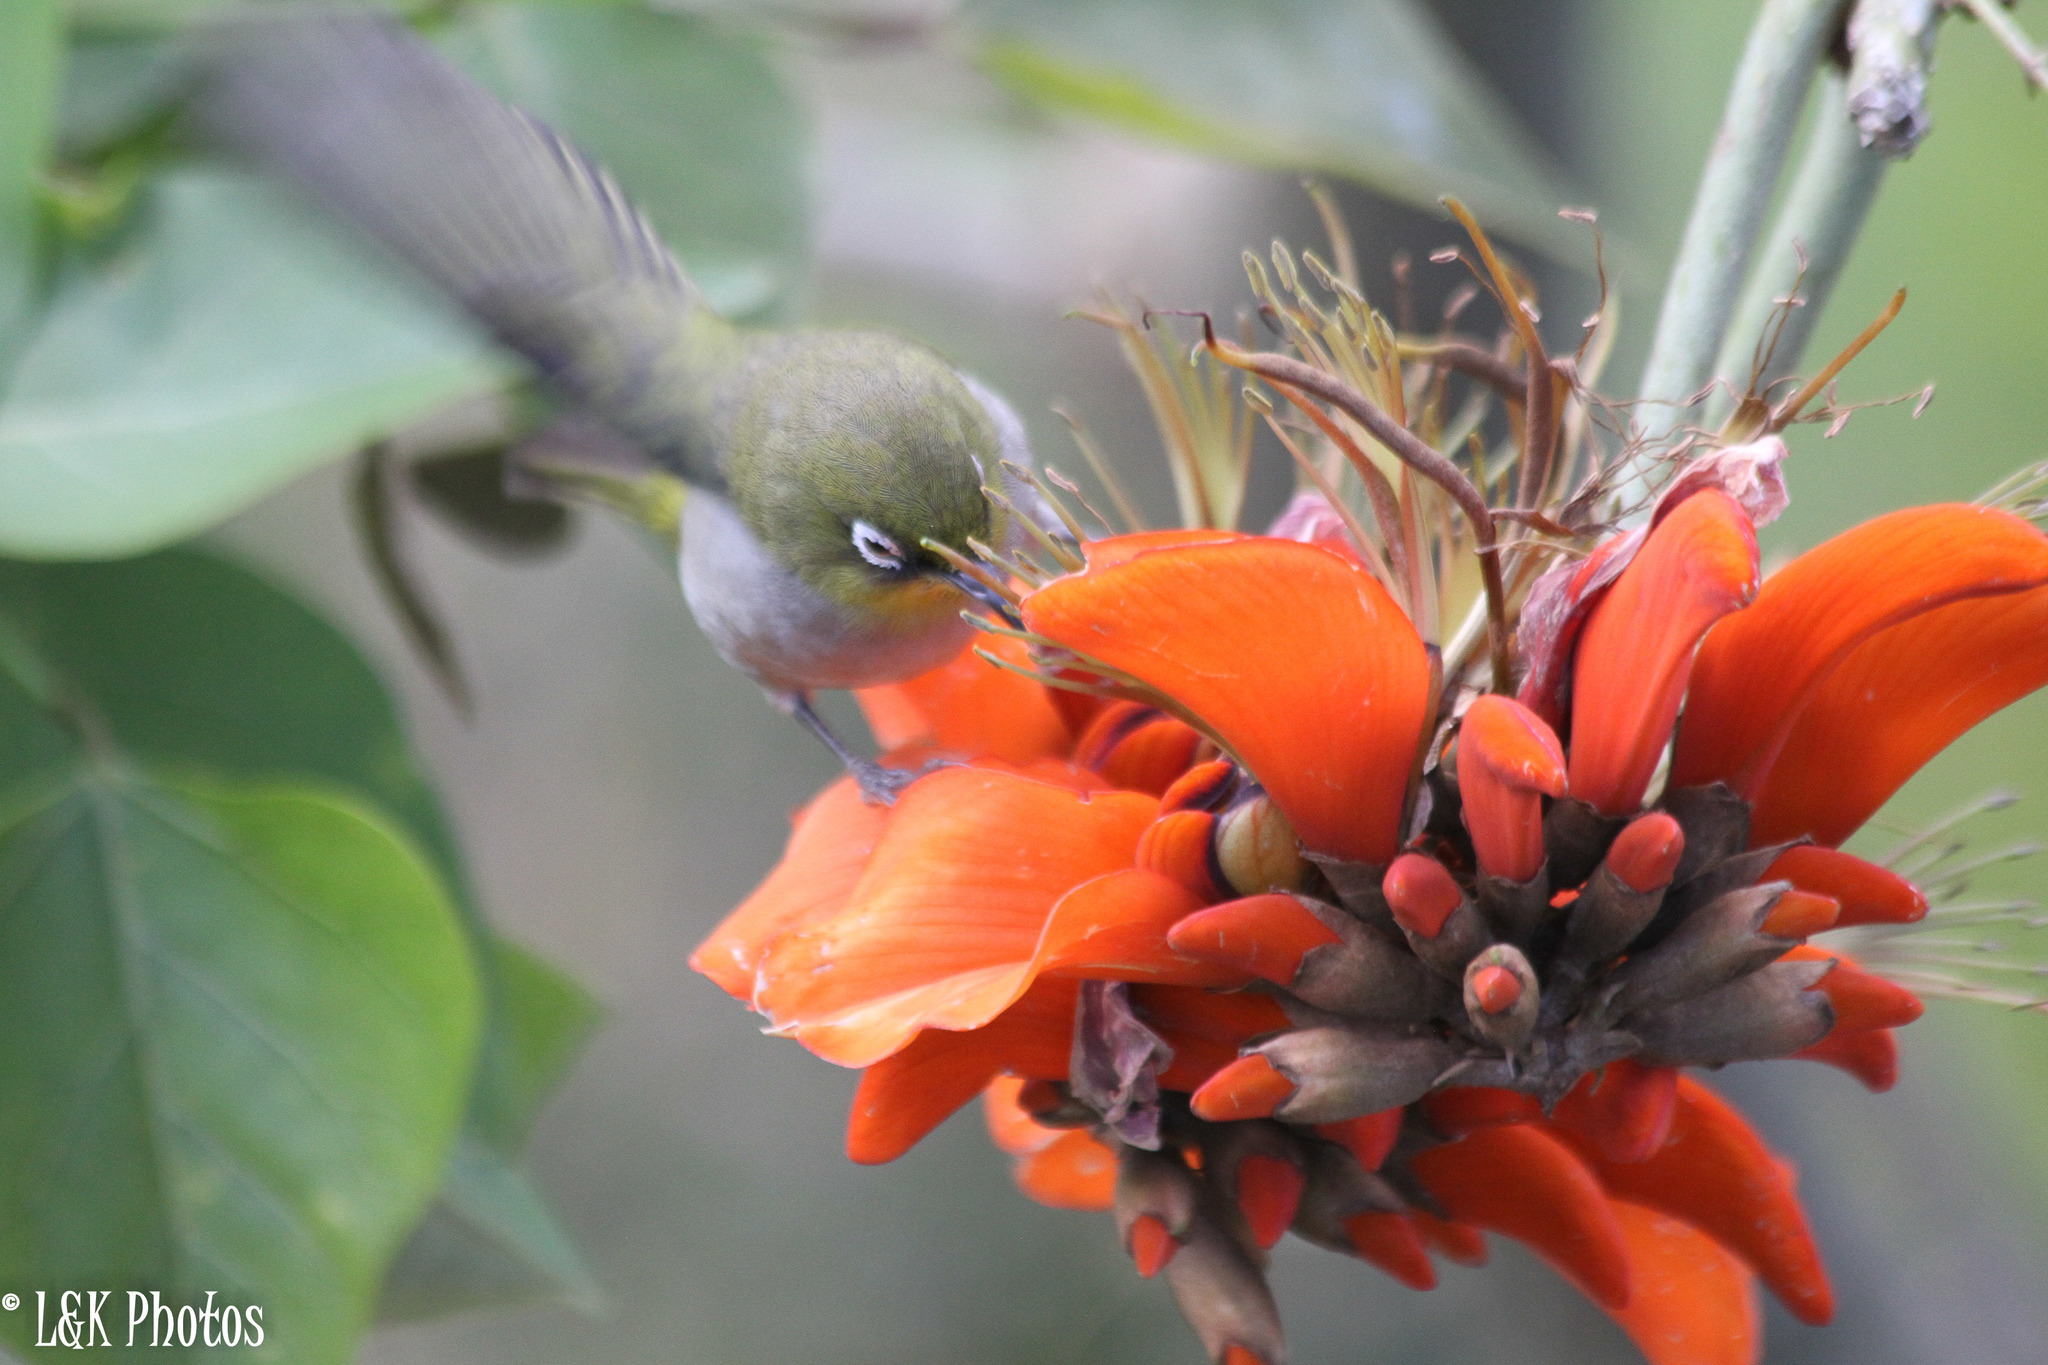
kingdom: Animalia
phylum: Chordata
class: Aves
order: Passeriformes
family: Zosteropidae
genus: Zosterops
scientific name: Zosterops virens
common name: Cape white-eye
